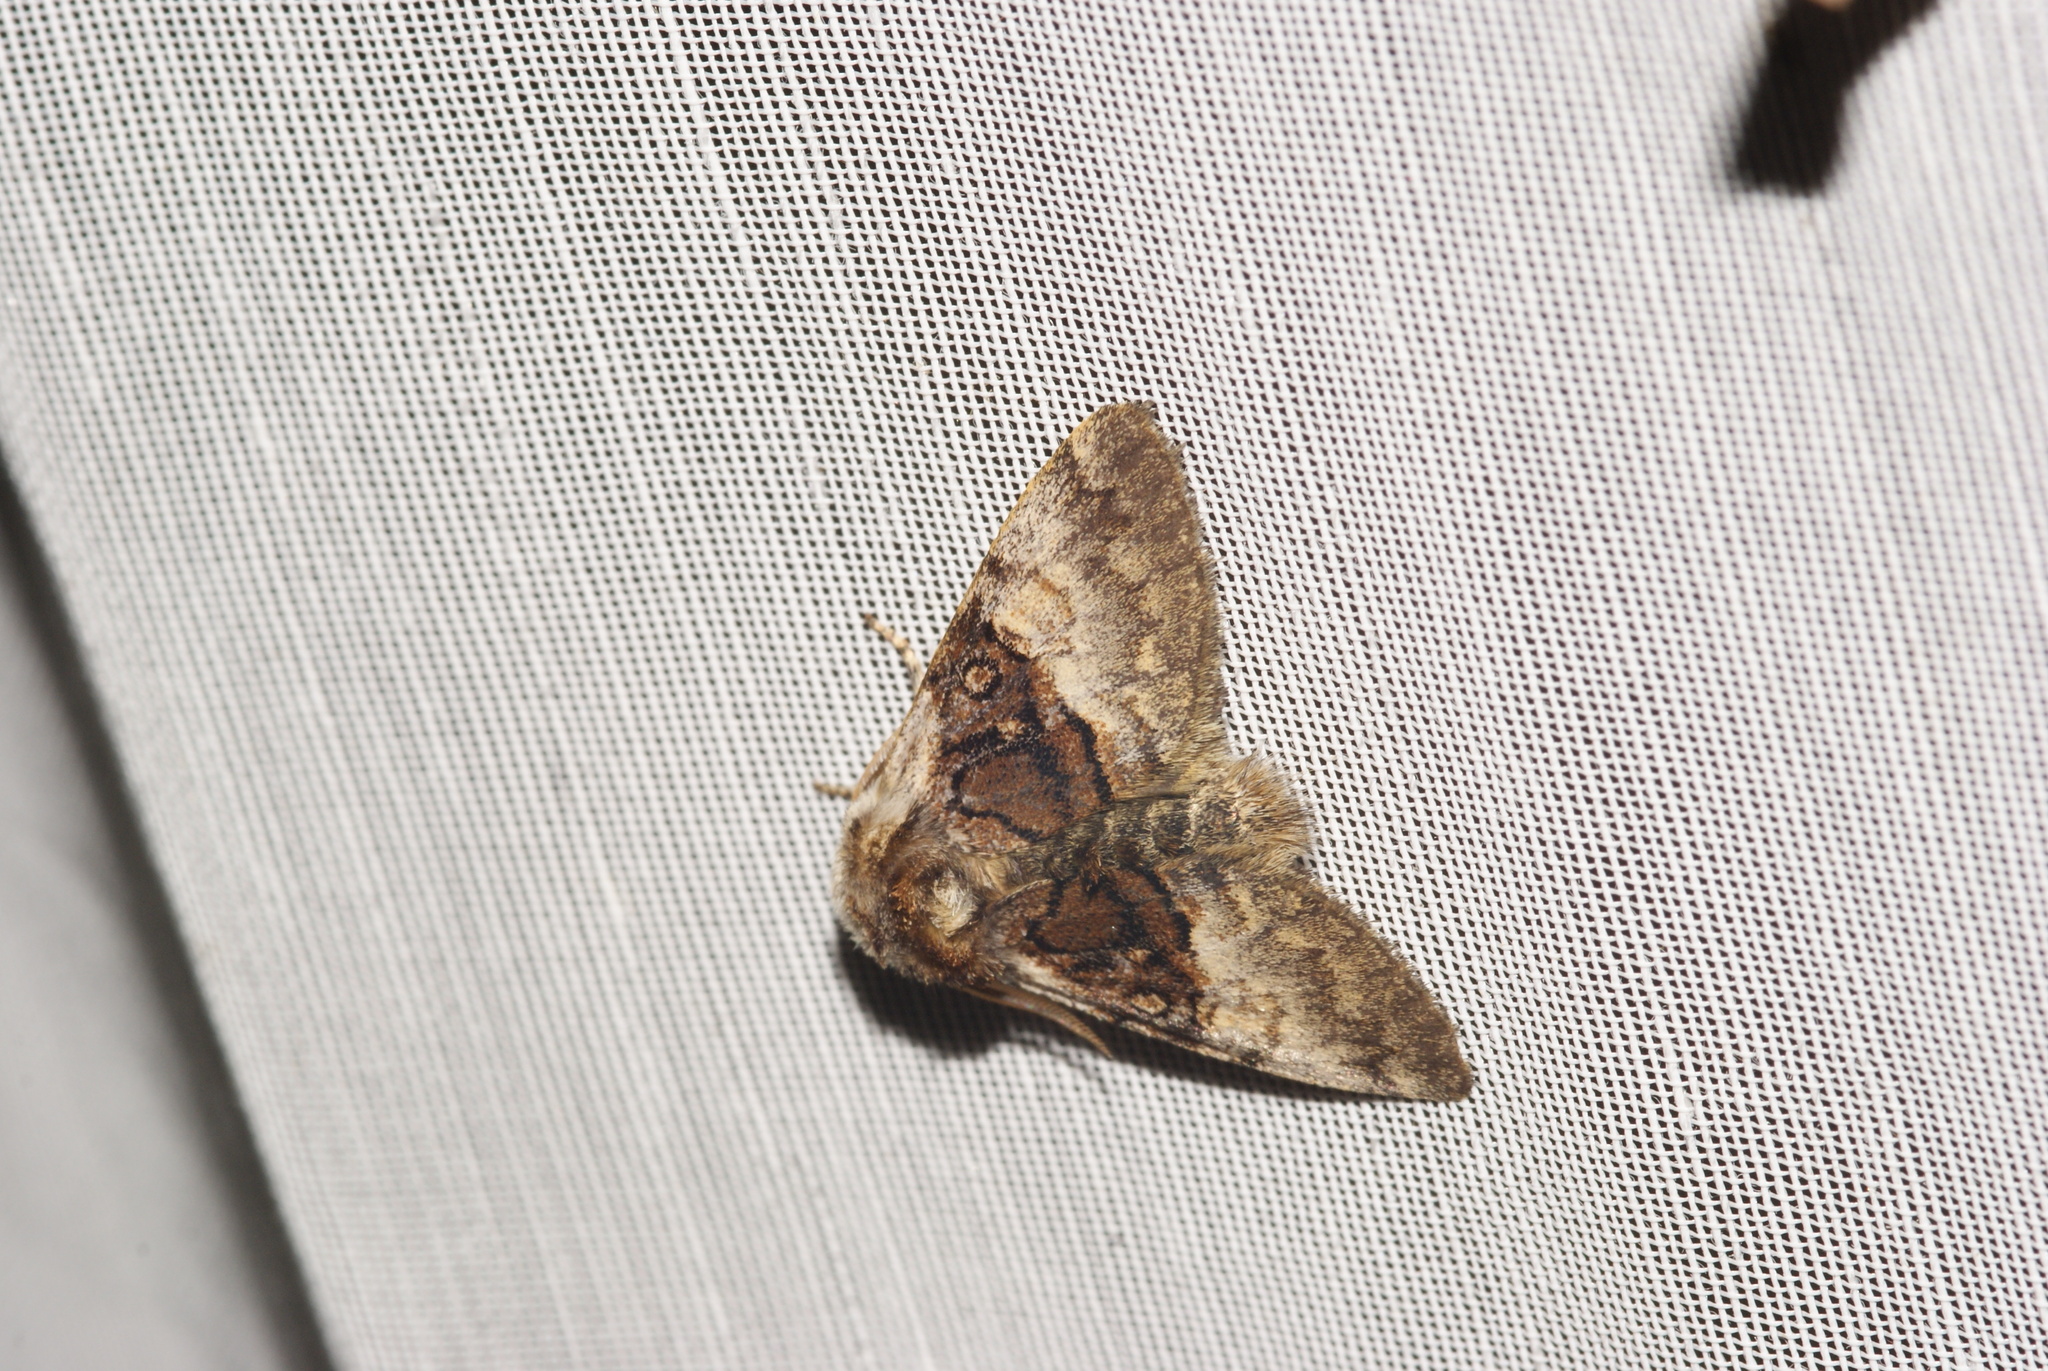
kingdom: Animalia
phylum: Arthropoda
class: Insecta
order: Lepidoptera
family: Noctuidae
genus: Colocasia
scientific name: Colocasia coryli
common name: Nut-tree tussock
